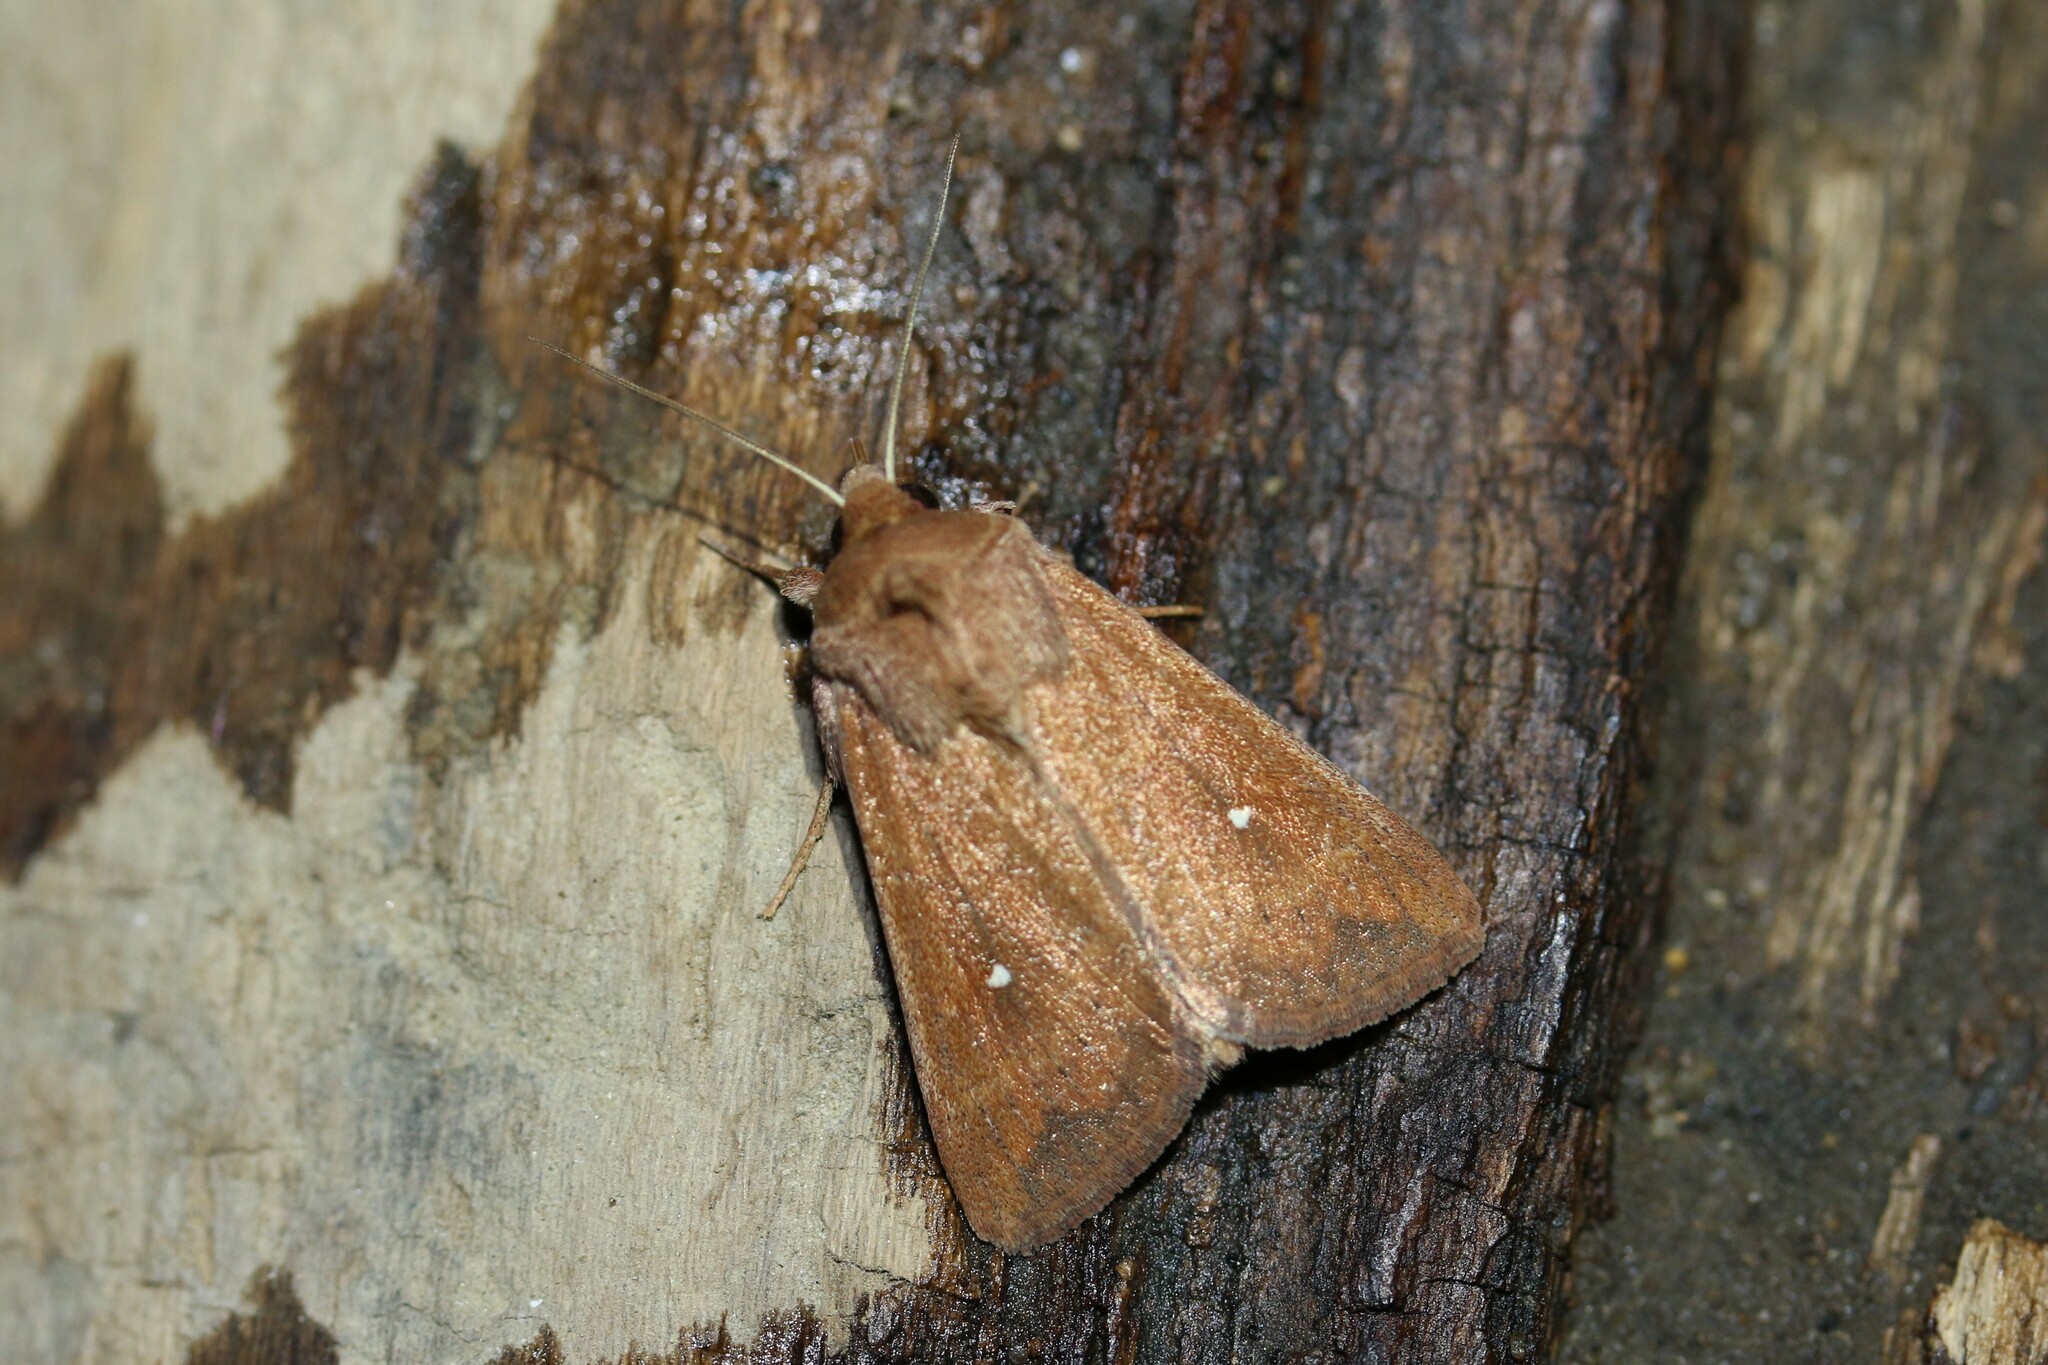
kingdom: Animalia
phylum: Arthropoda
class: Insecta
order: Lepidoptera
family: Noctuidae
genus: Mythimna
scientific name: Mythimna albipuncta
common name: White-point
